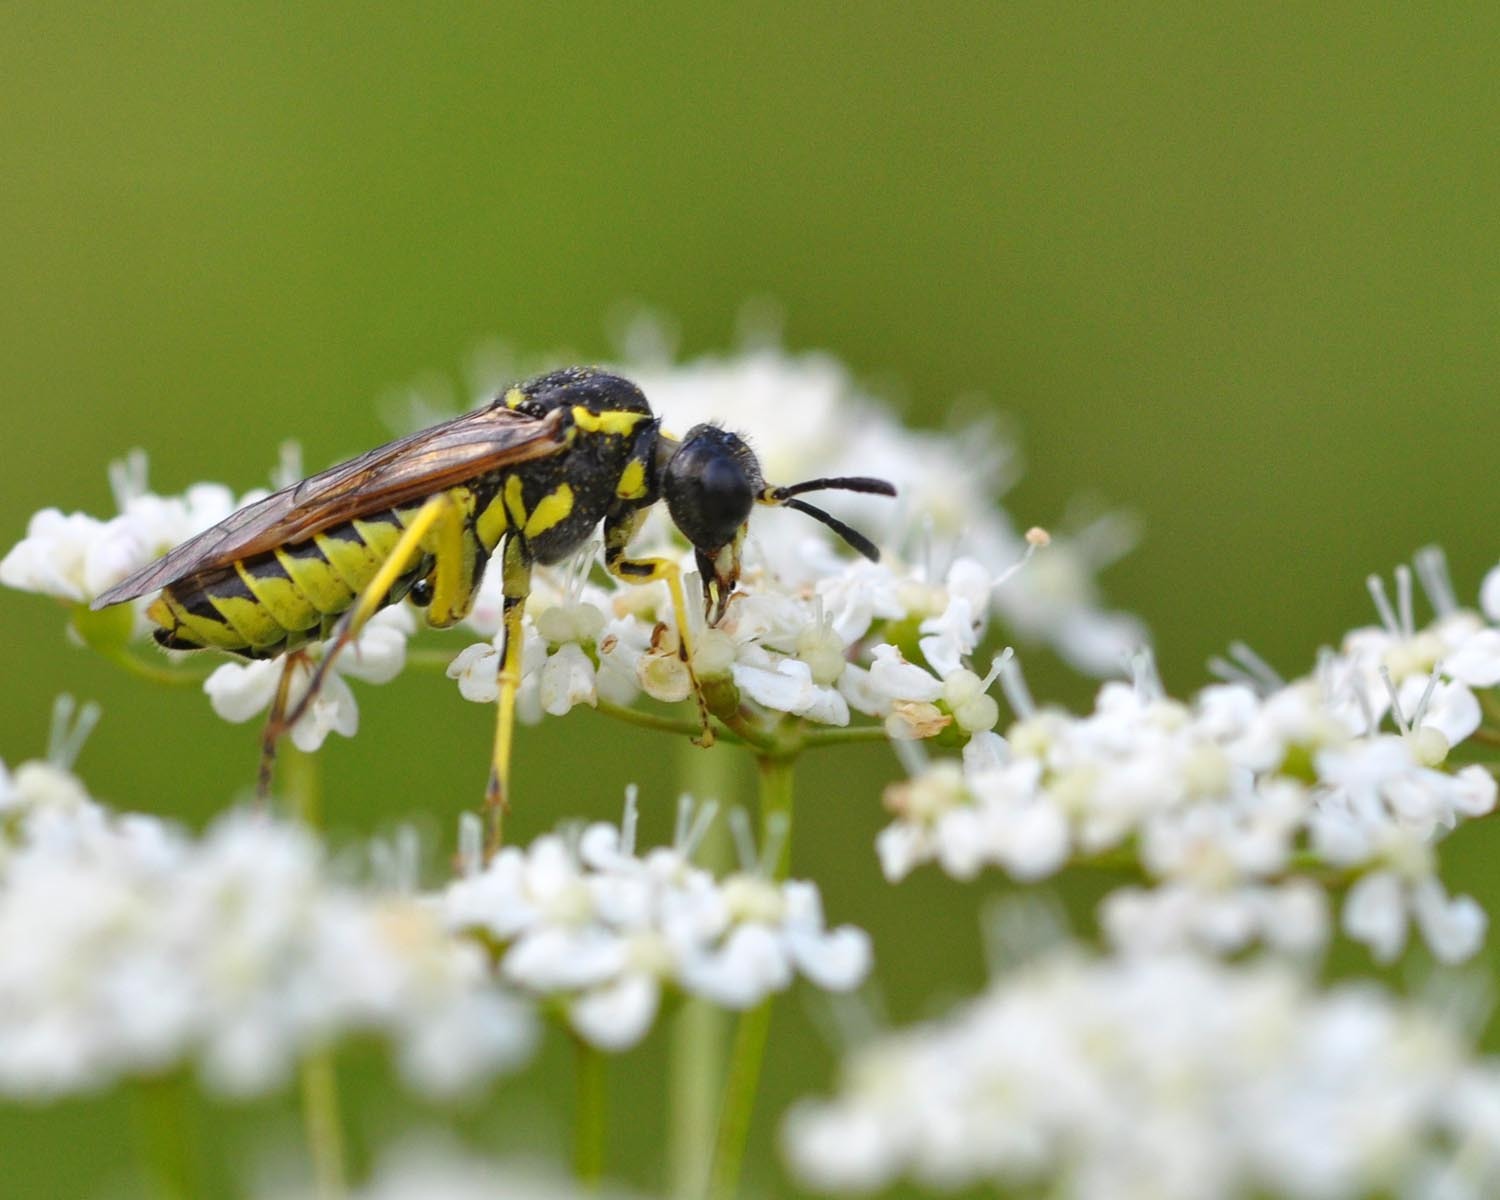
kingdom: Animalia
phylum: Arthropoda
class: Insecta
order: Hymenoptera
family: Tenthredinidae
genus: Tenthredo
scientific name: Tenthredo notha
